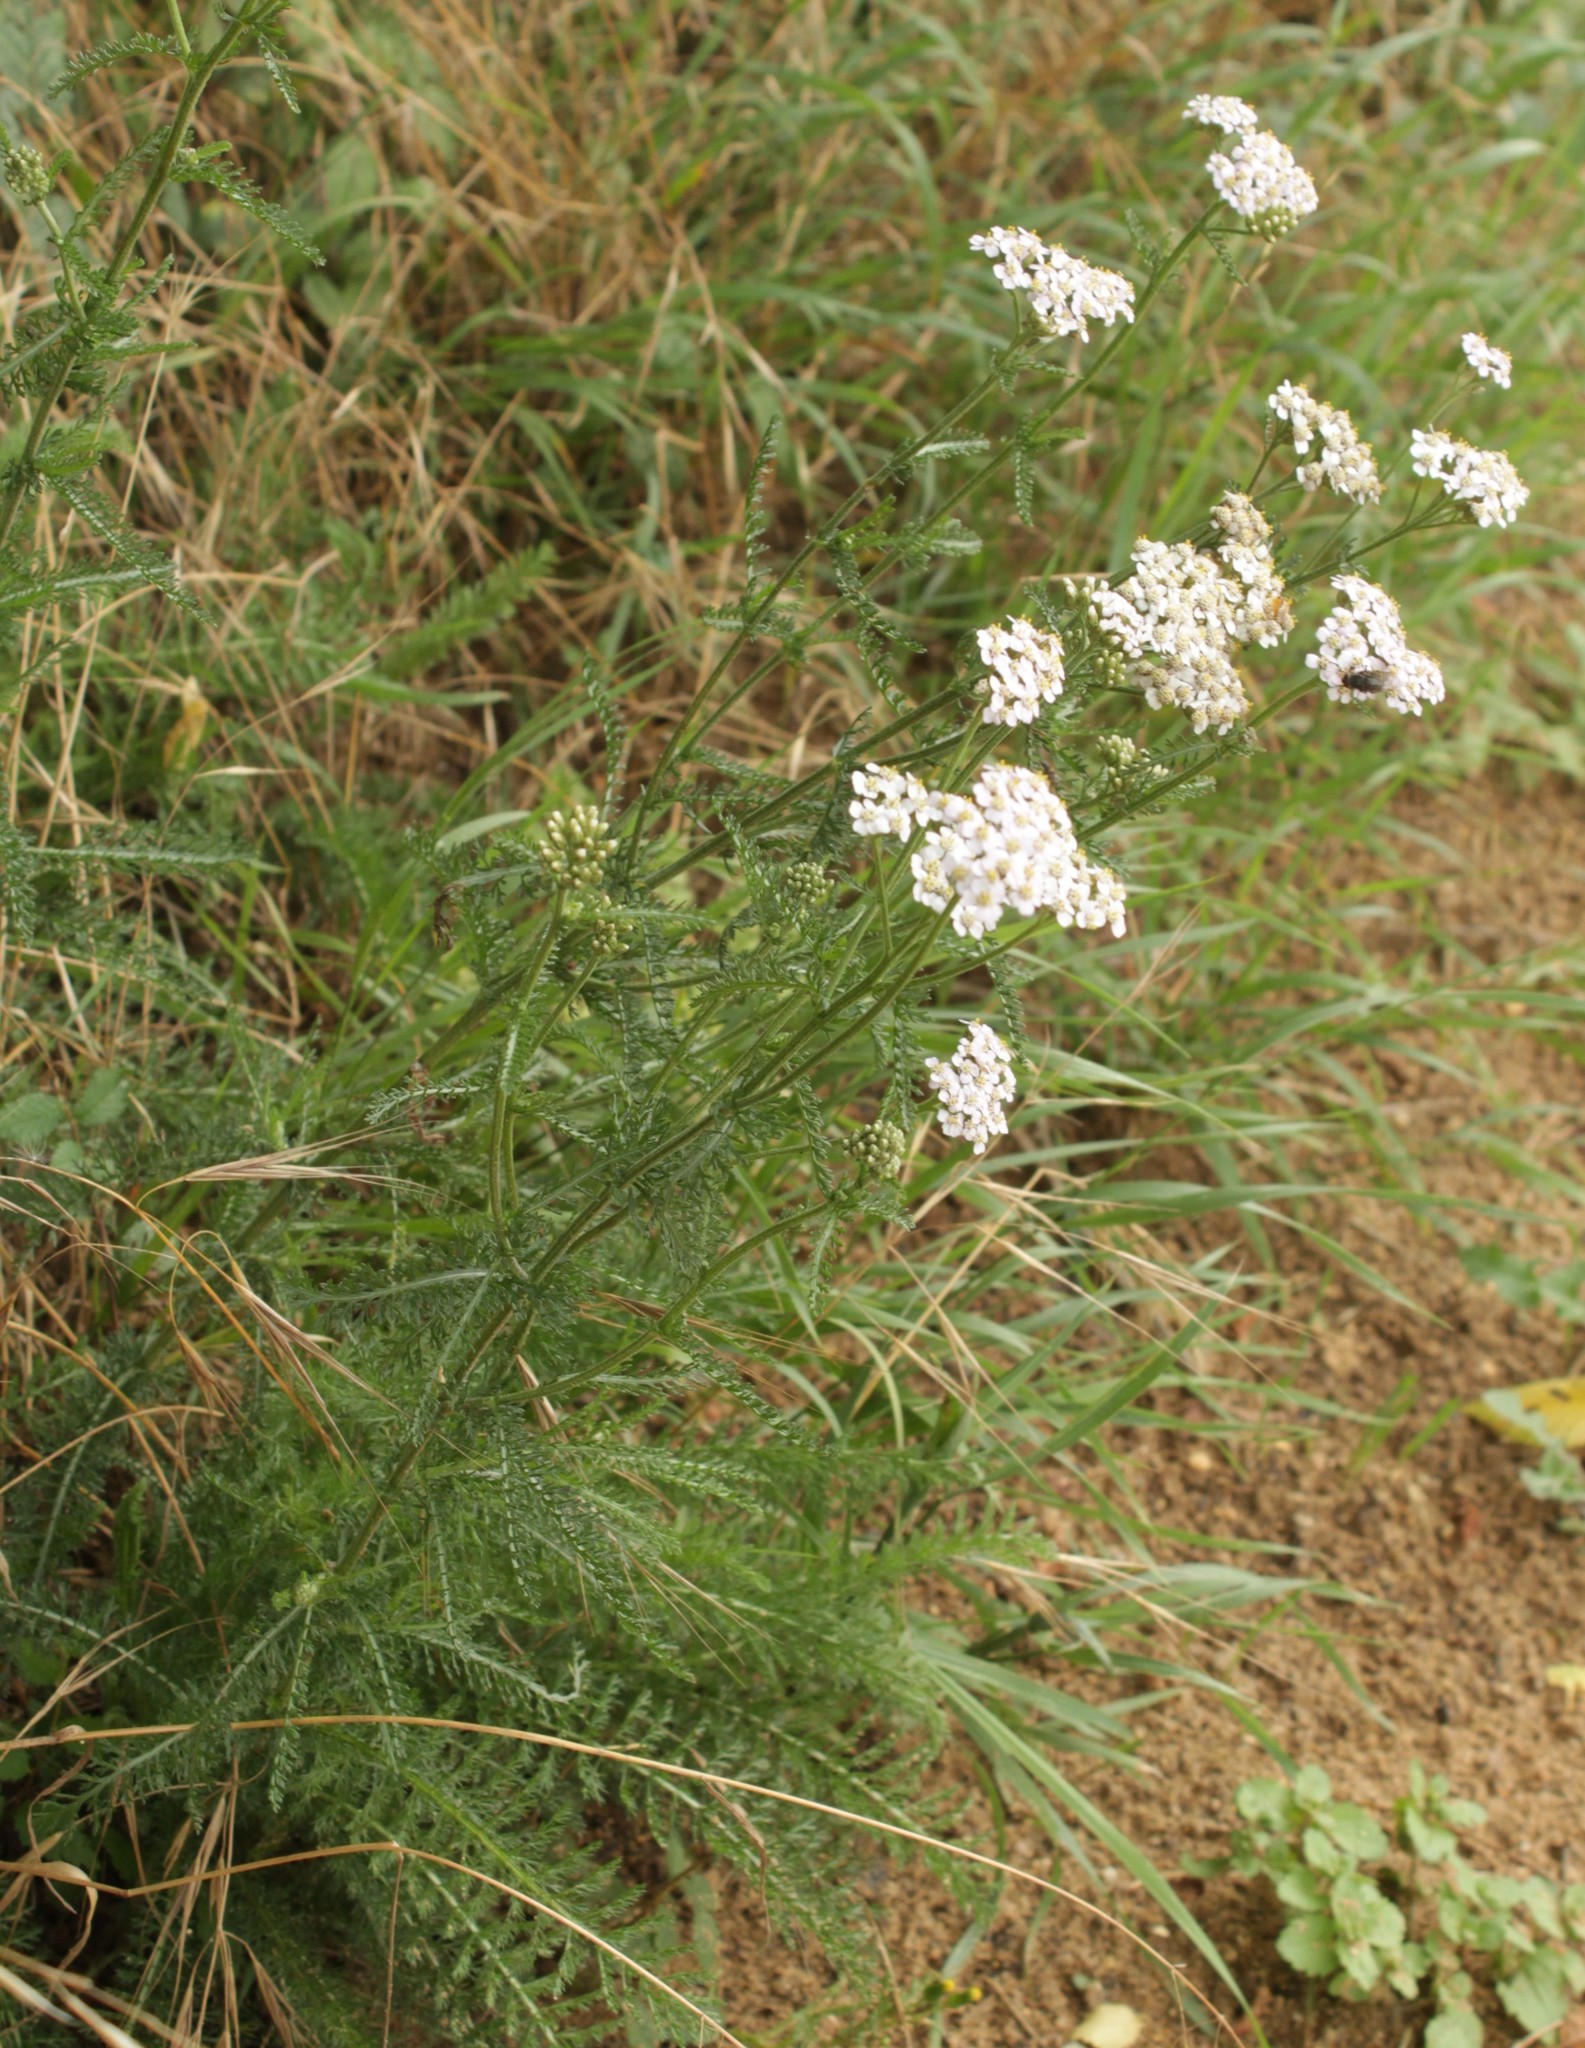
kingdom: Plantae
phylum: Tracheophyta
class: Magnoliopsida
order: Asterales
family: Asteraceae
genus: Achillea
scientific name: Achillea millefolium
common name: Yarrow
